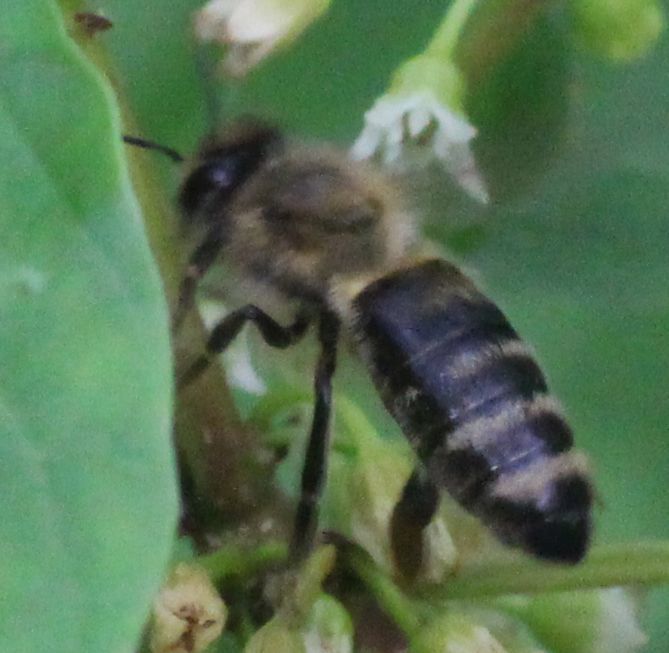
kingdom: Animalia
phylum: Arthropoda
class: Insecta
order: Hymenoptera
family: Apidae
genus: Apis
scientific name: Apis mellifera
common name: Honey bee
